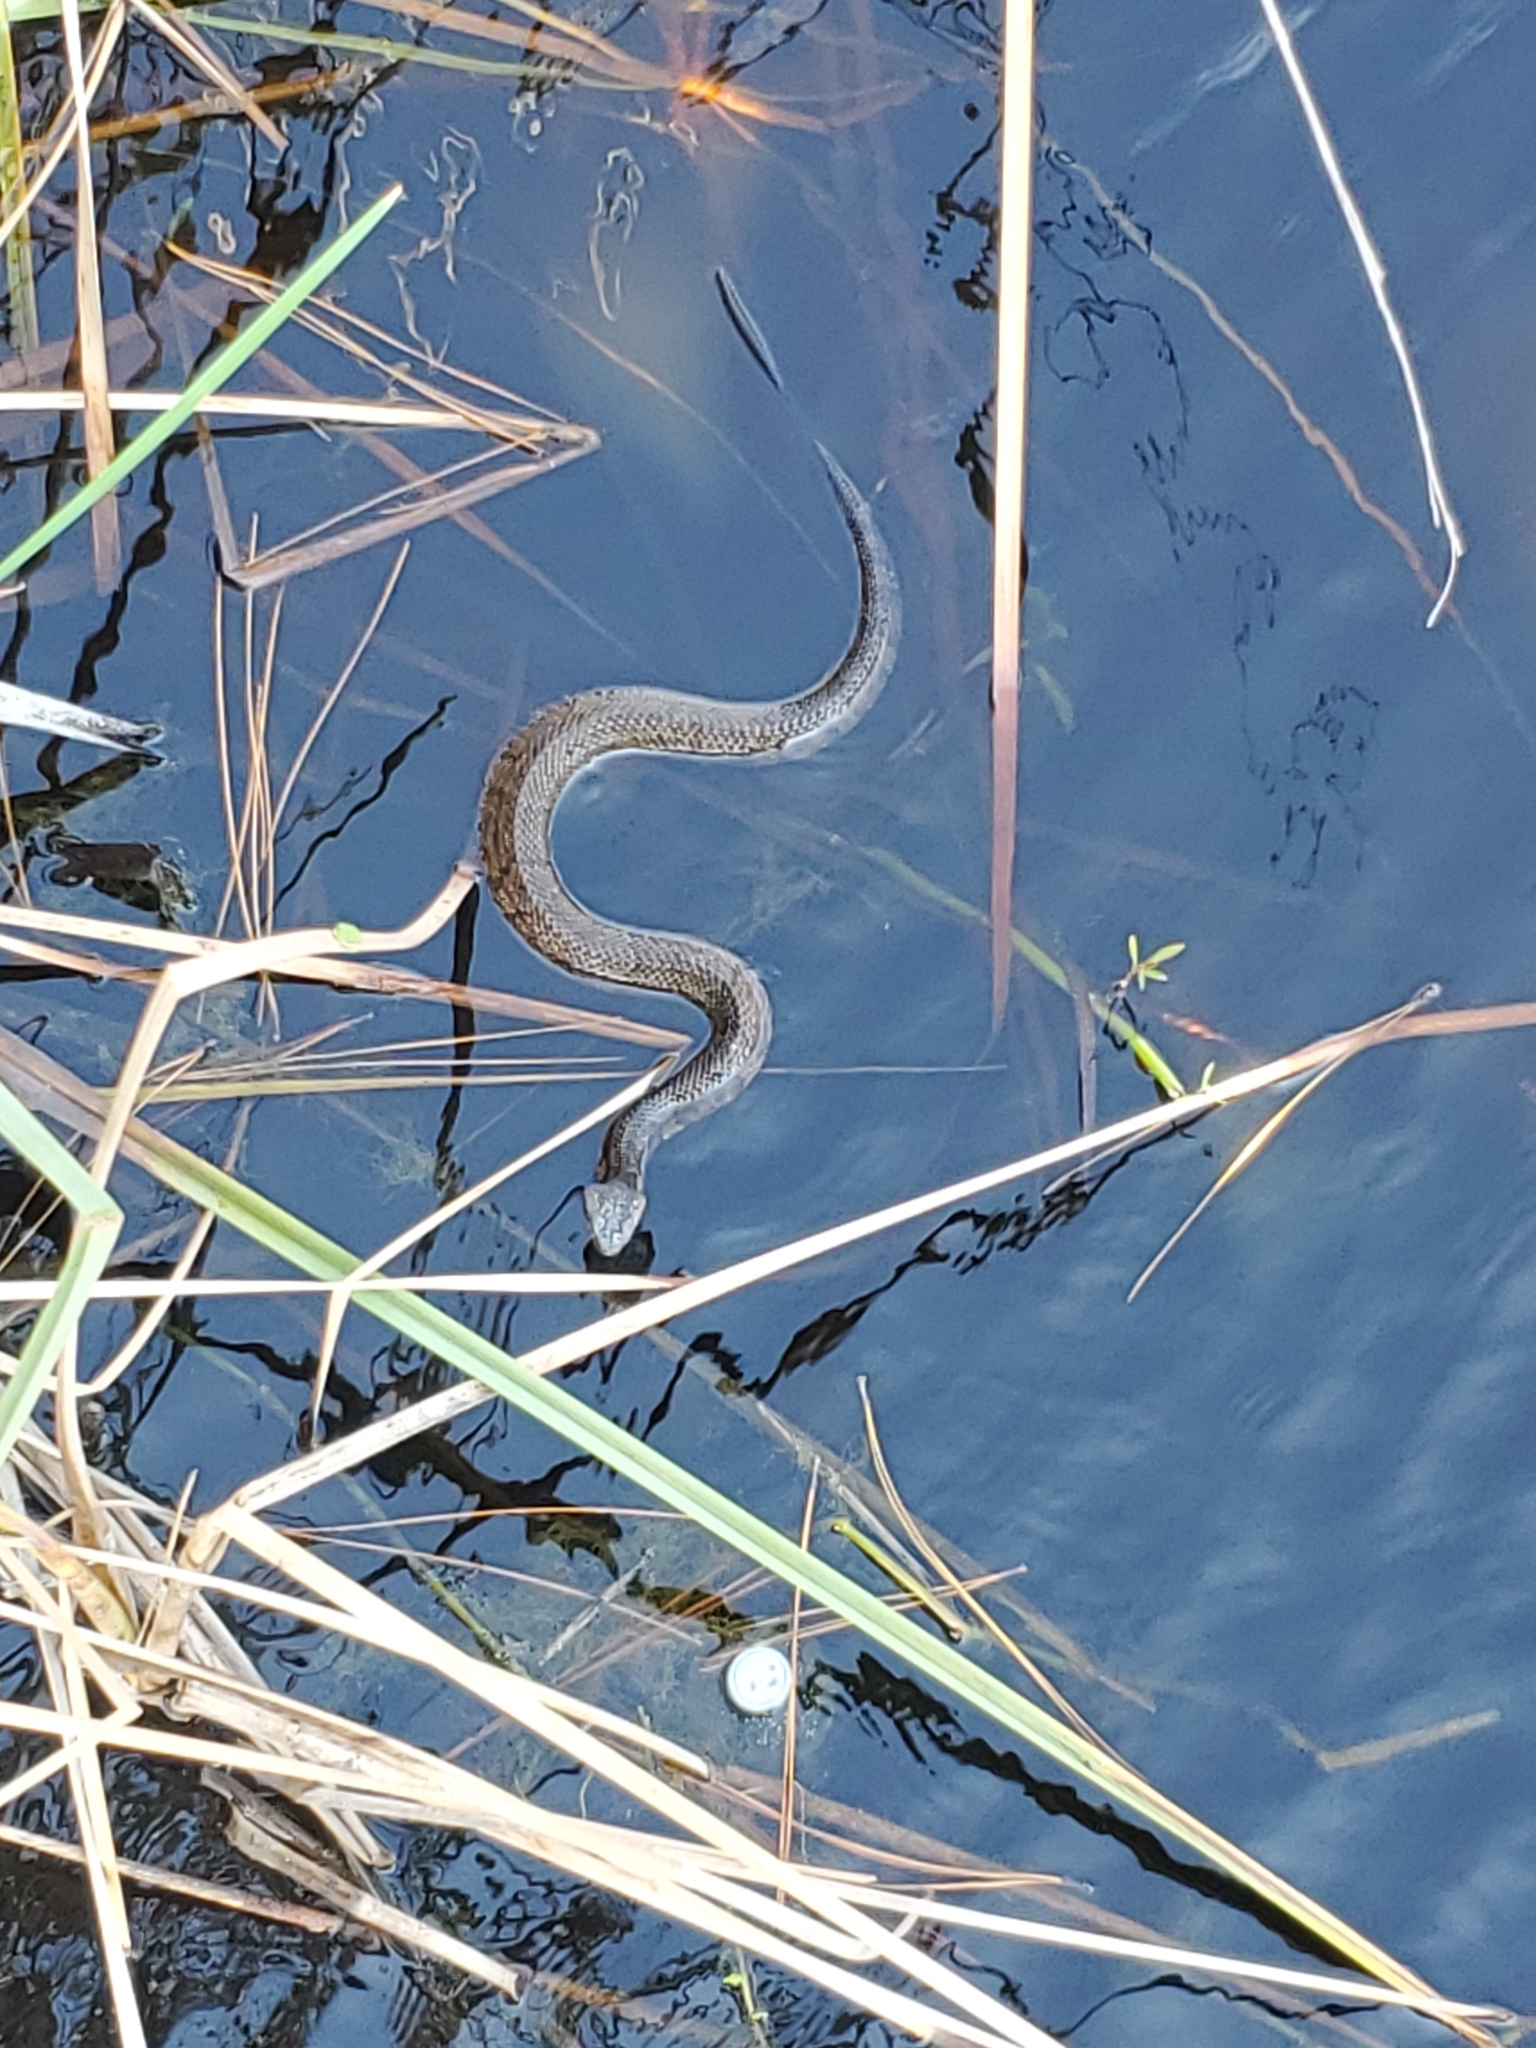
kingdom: Animalia
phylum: Chordata
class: Squamata
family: Viperidae
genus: Agkistrodon
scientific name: Agkistrodon piscivorus
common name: Cottonmouth
